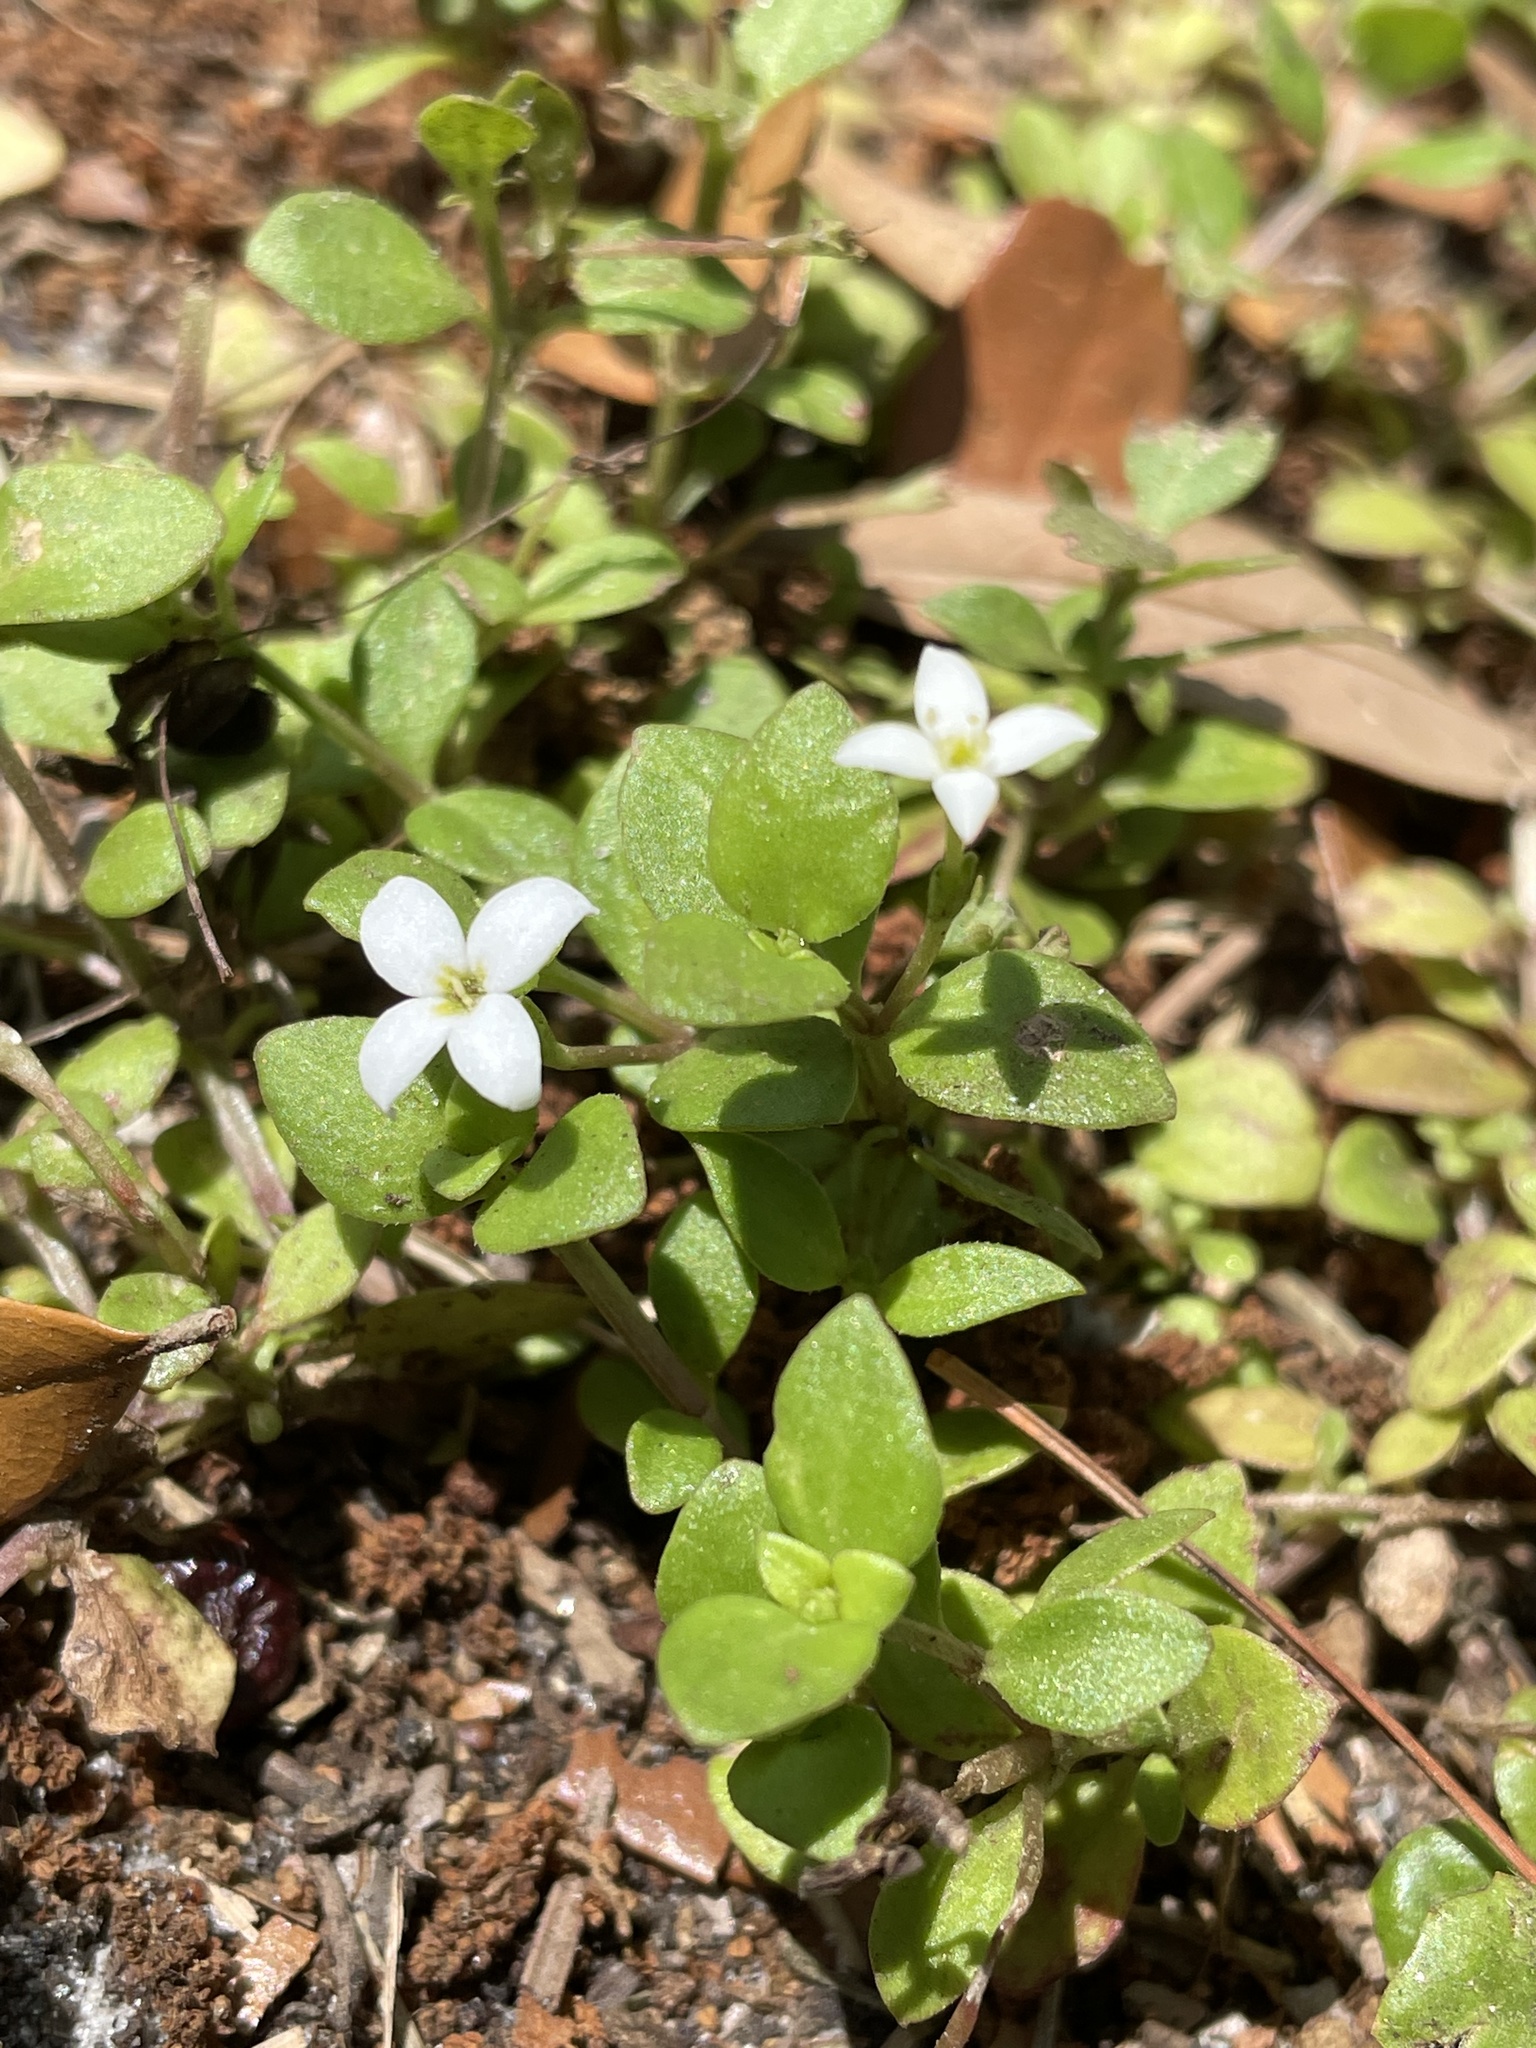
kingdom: Plantae
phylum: Tracheophyta
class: Magnoliopsida
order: Gentianales
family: Rubiaceae
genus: Houstonia
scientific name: Houstonia procumbens
